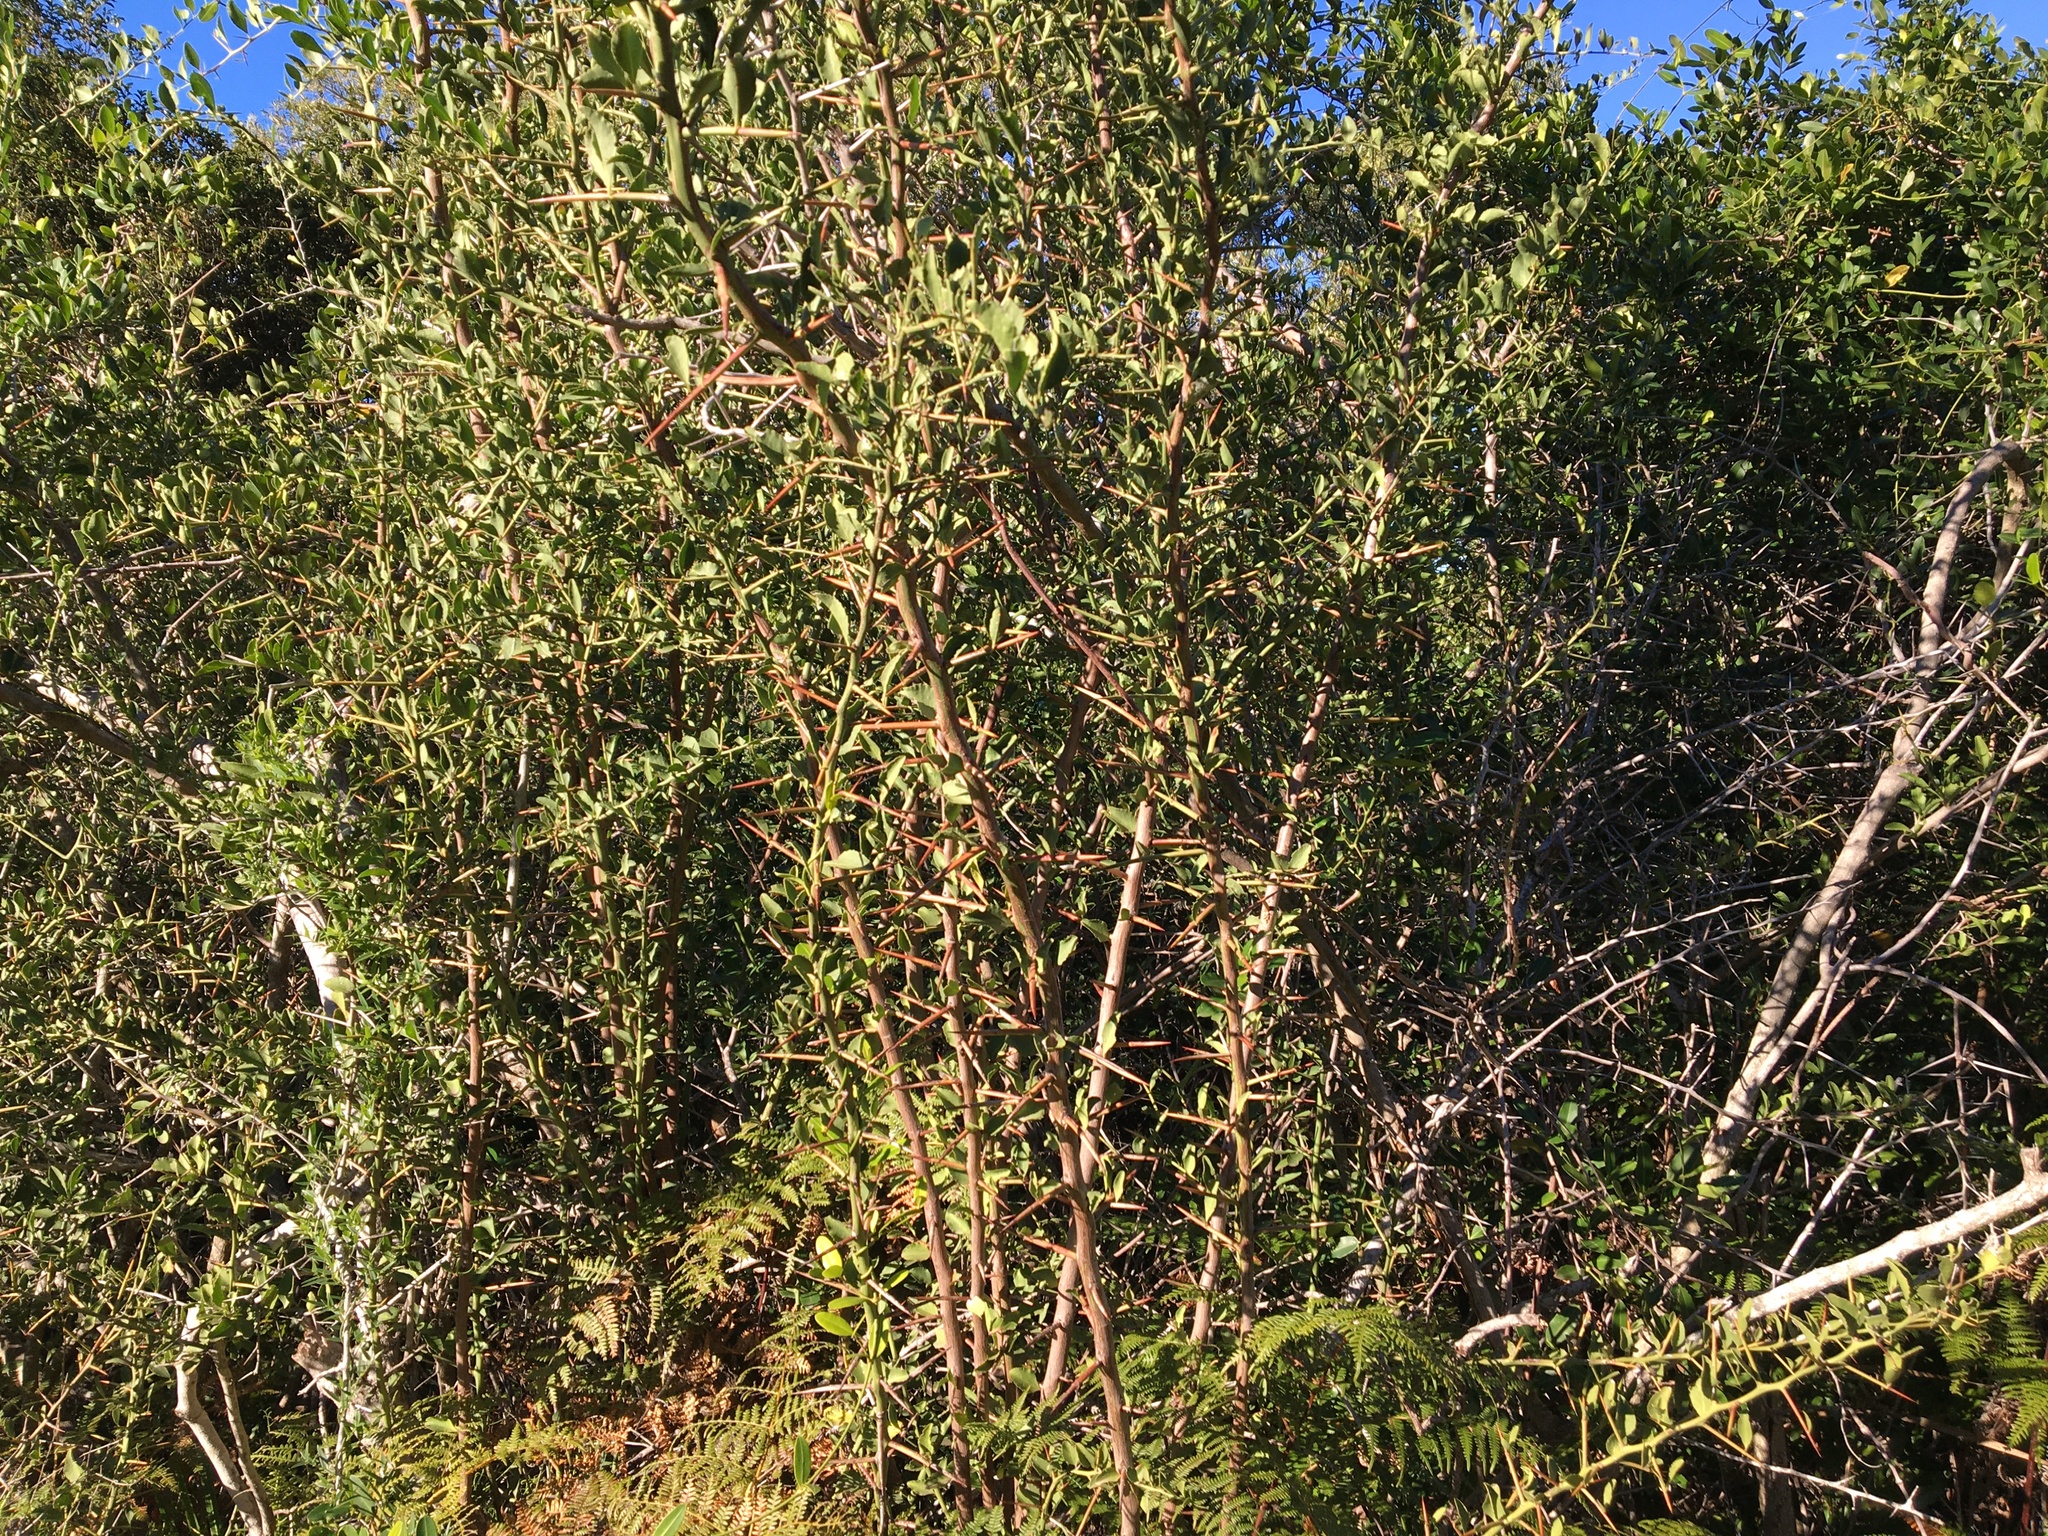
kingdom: Plantae
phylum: Tracheophyta
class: Magnoliopsida
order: Celastrales
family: Celastraceae
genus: Gymnosporia
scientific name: Gymnosporia buxifolia
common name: Common spike-thorn
